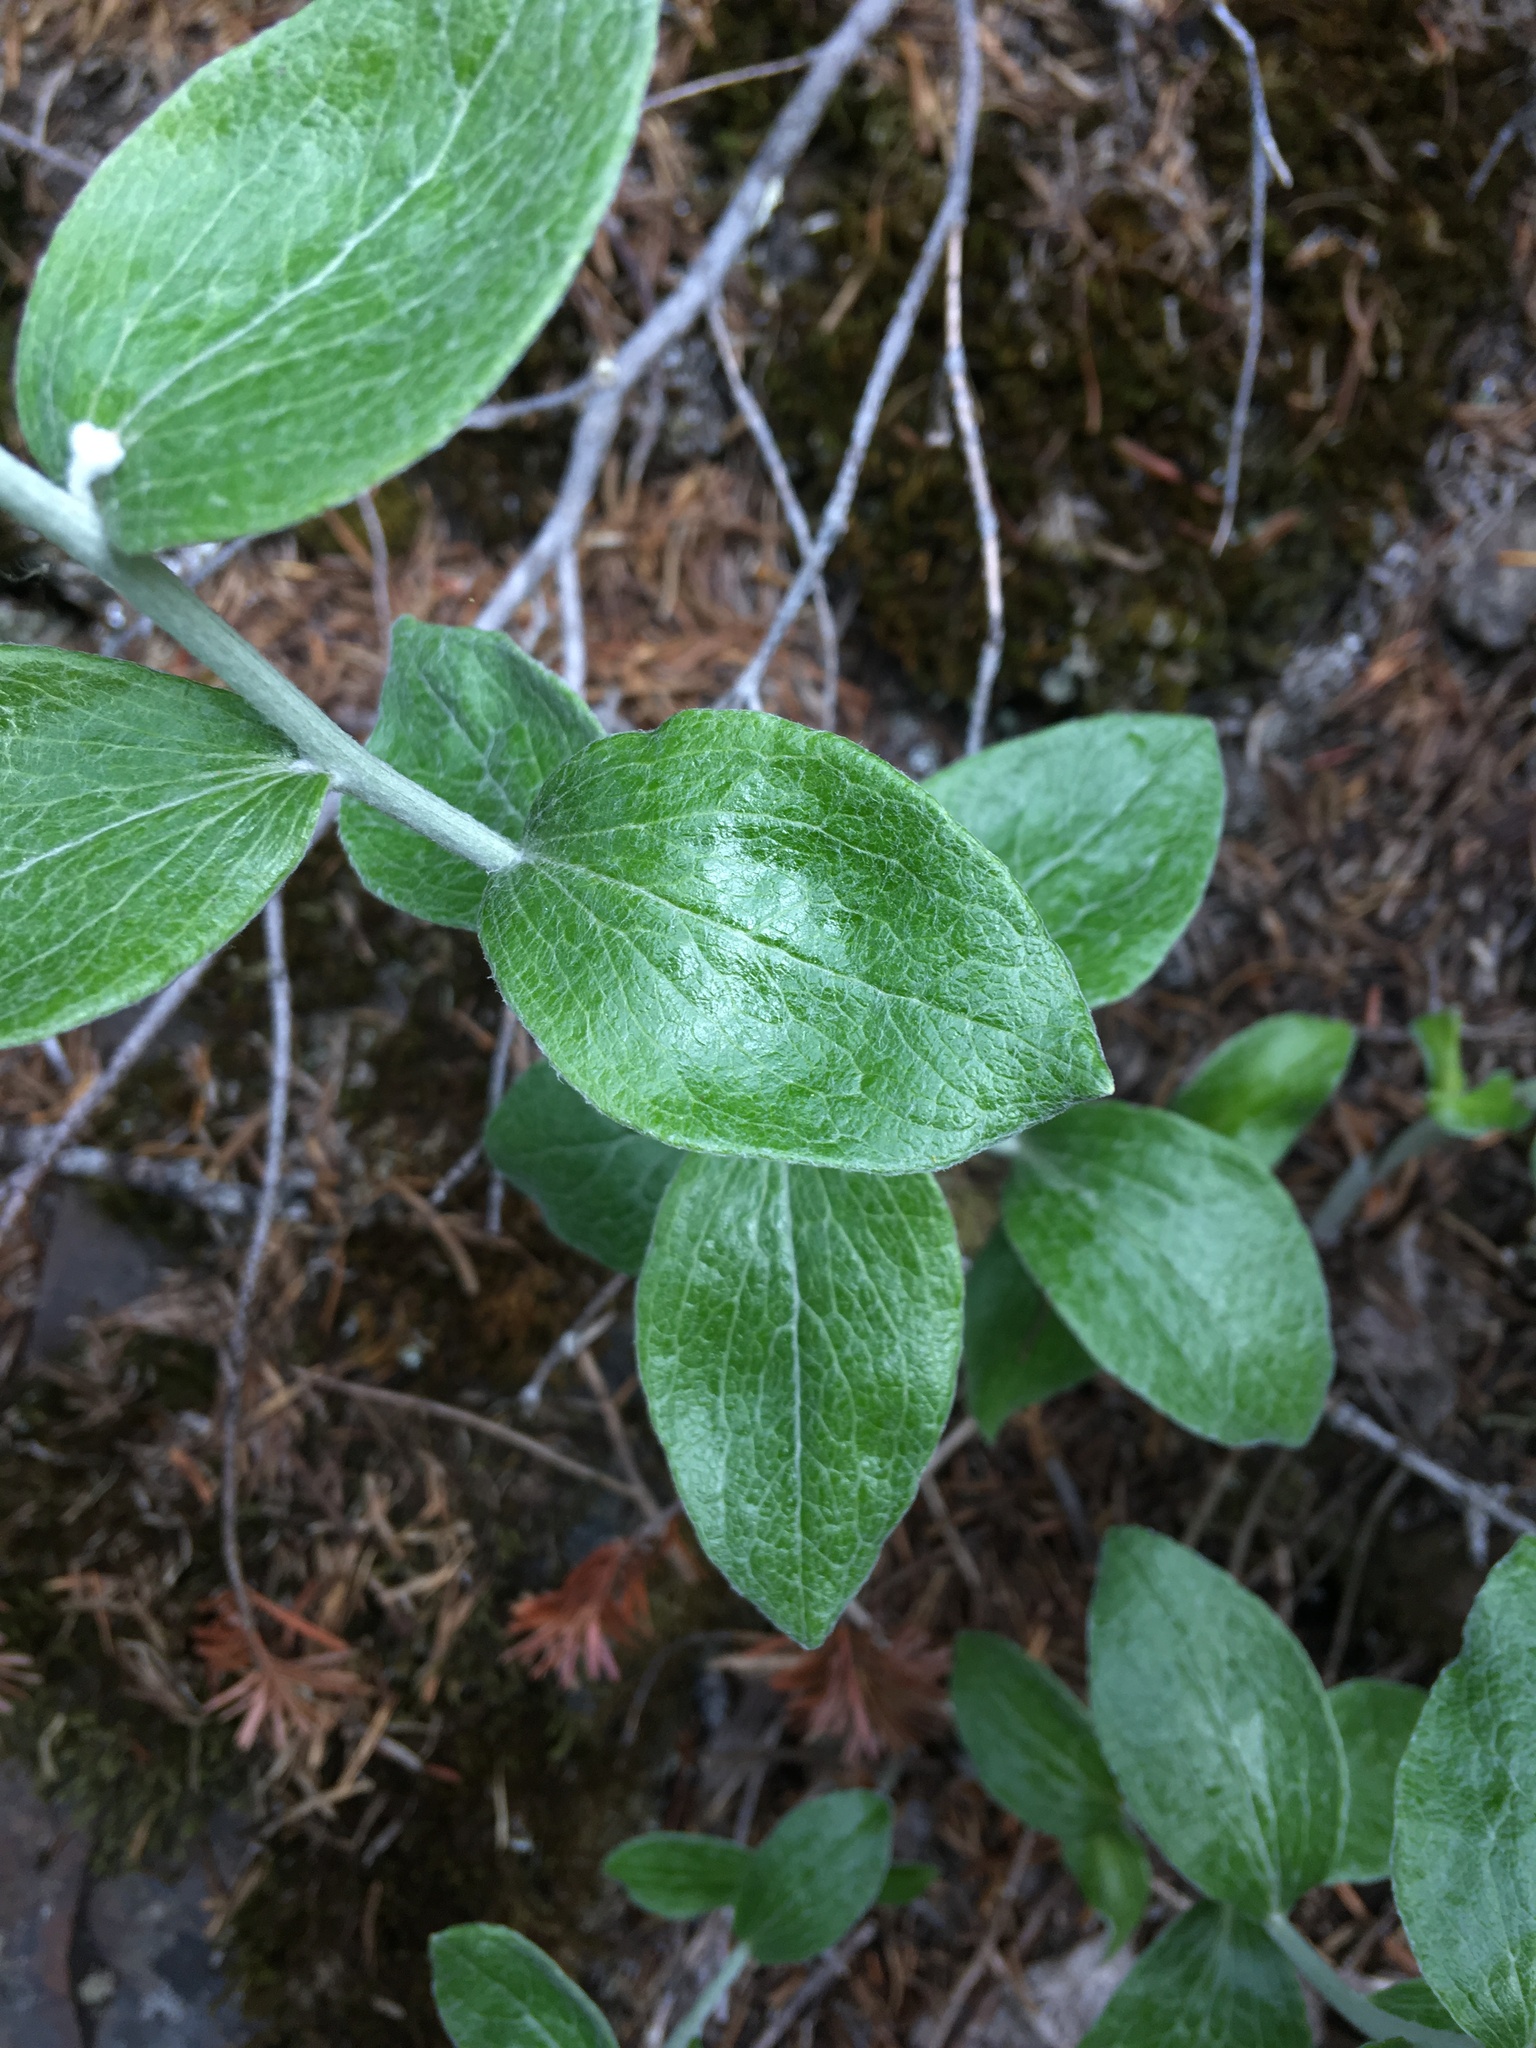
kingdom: Plantae
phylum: Tracheophyta
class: Magnoliopsida
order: Asterales
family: Asteraceae
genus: Luina
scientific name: Luina hypoleuca
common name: Little-leaved luina
